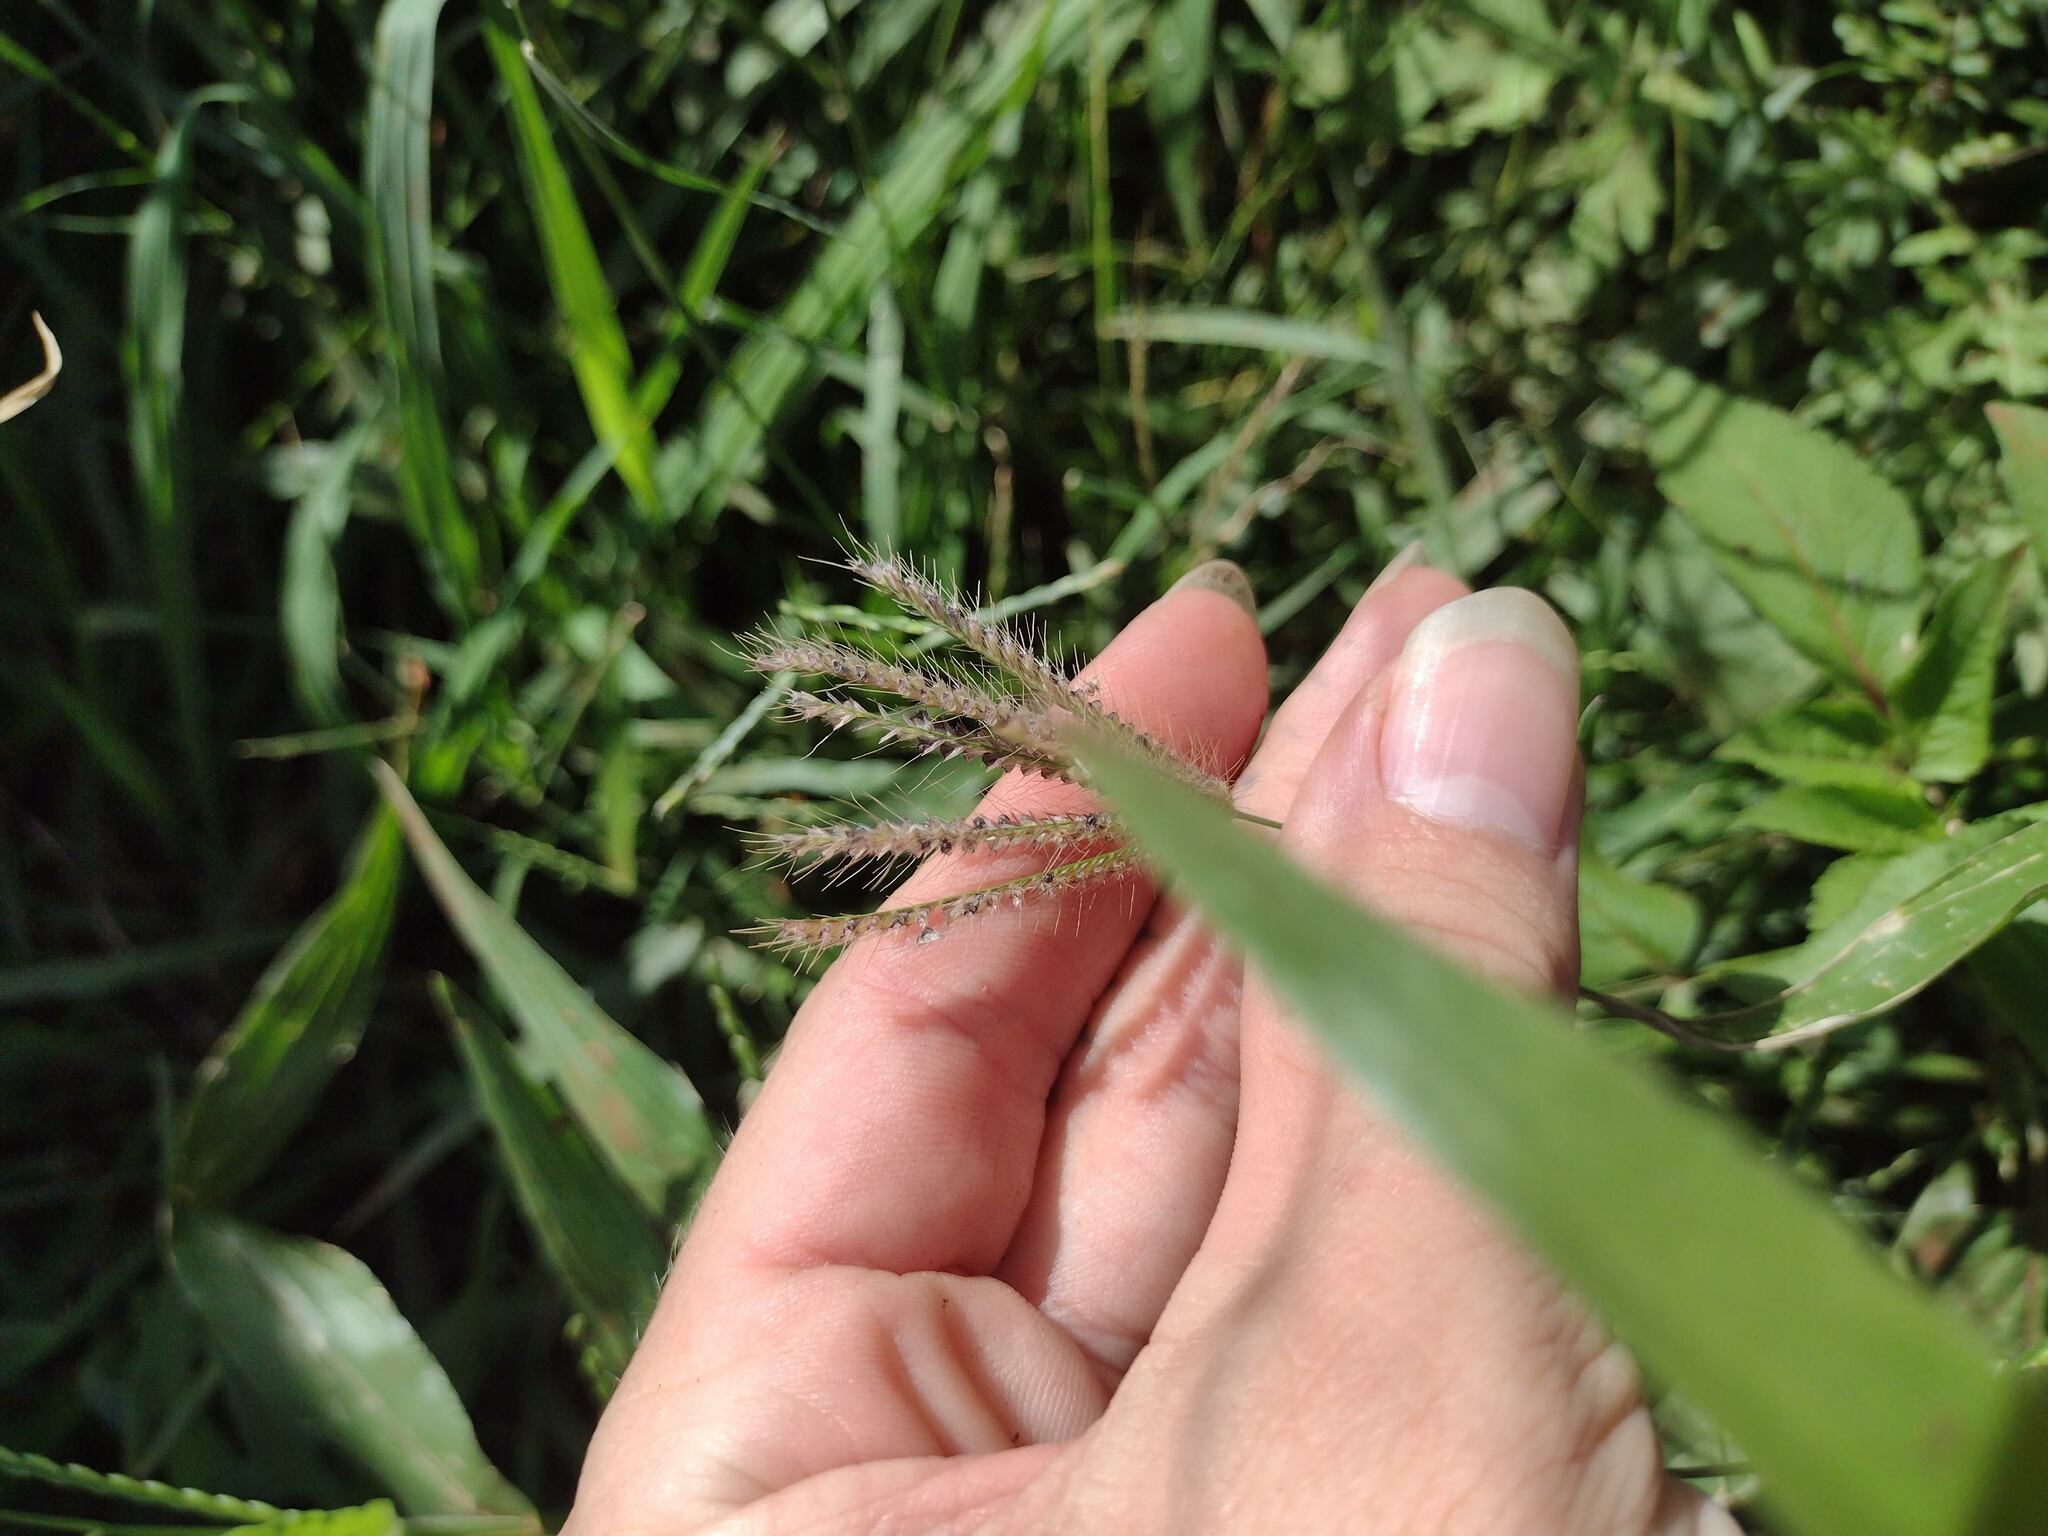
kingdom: Plantae
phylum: Tracheophyta
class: Liliopsida
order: Poales
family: Poaceae
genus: Chloris
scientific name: Chloris barbata
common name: Swollen fingergrass
